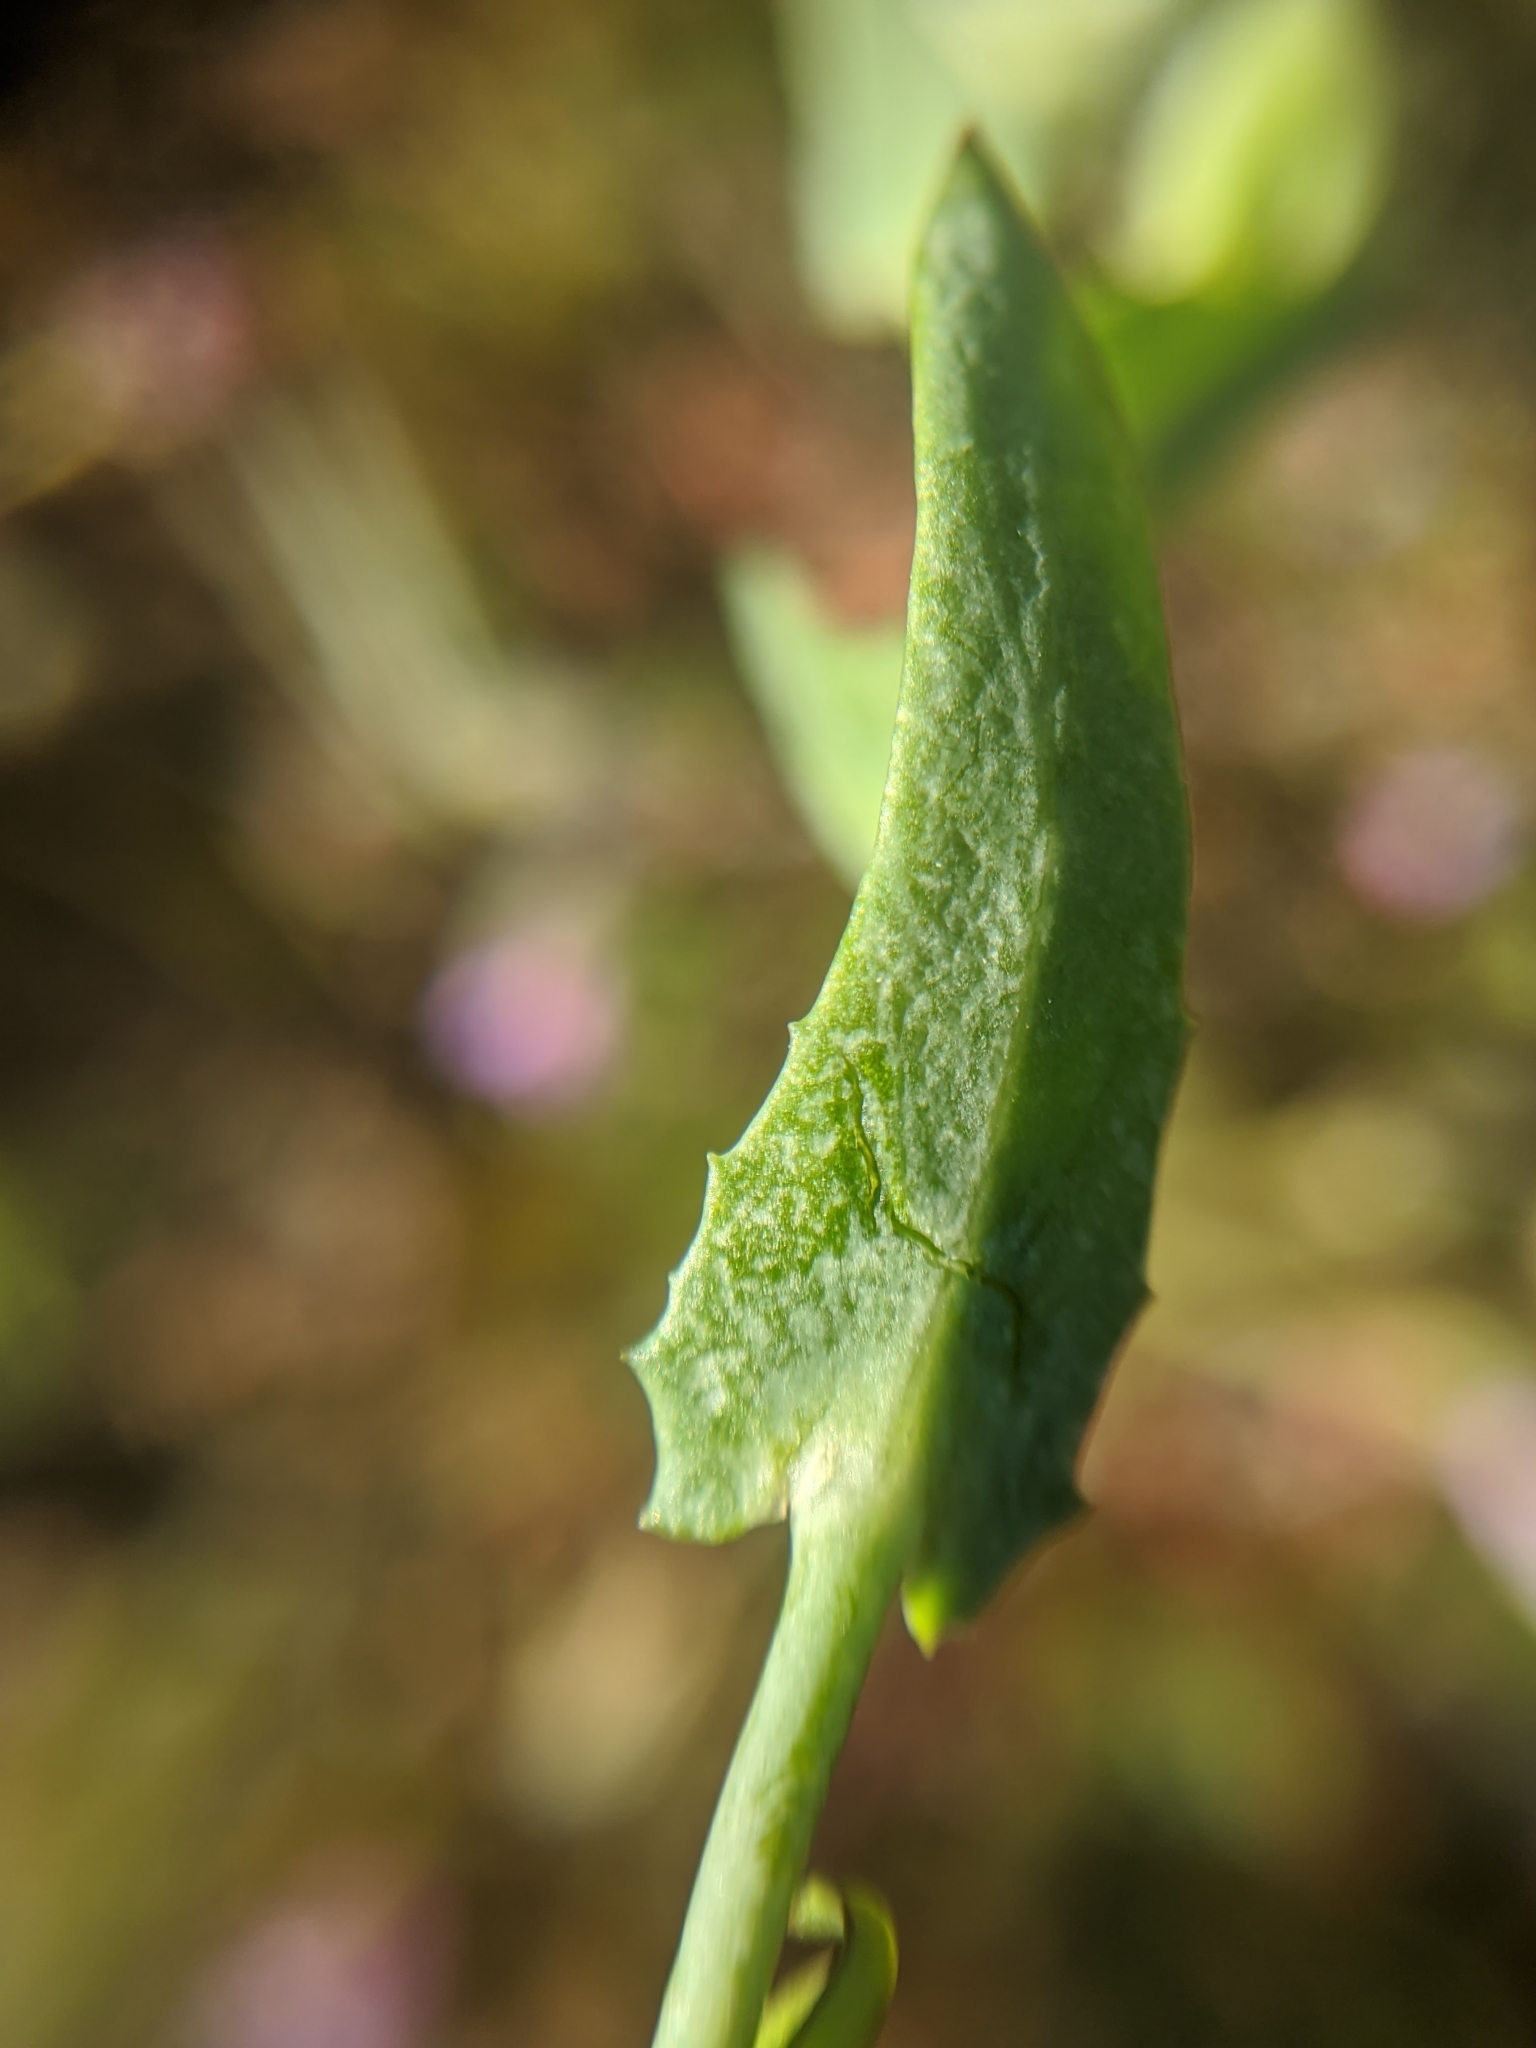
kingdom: Plantae
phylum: Tracheophyta
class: Magnoliopsida
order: Asterales
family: Asteraceae
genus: Malacothrix
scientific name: Malacothrix coulteri
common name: Snake's-head
